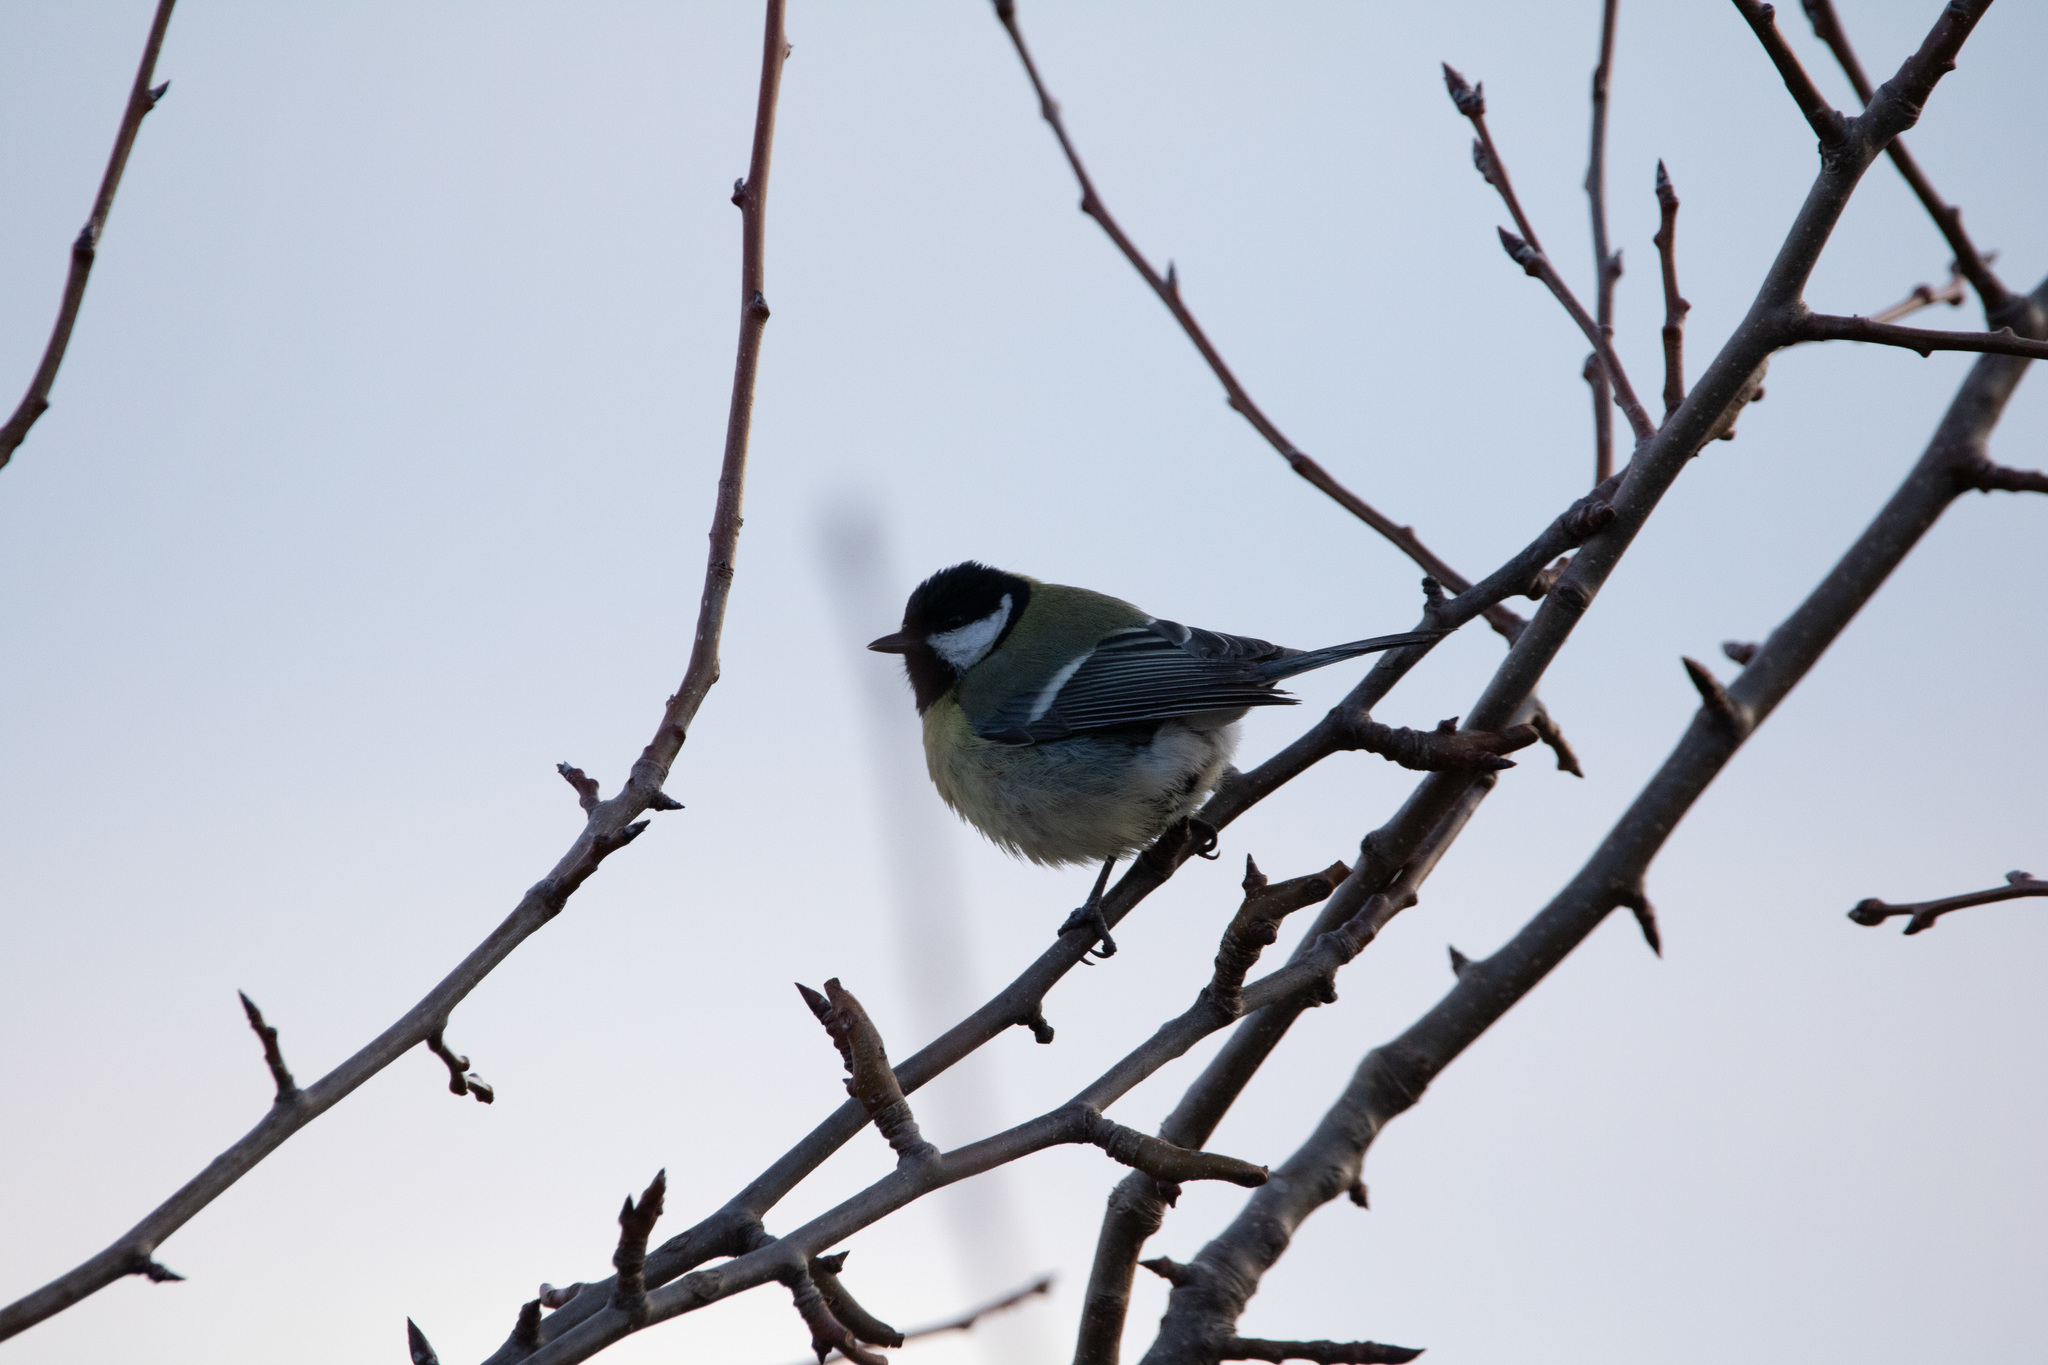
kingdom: Animalia
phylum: Chordata
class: Aves
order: Passeriformes
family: Paridae
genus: Parus
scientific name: Parus major
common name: Great tit
